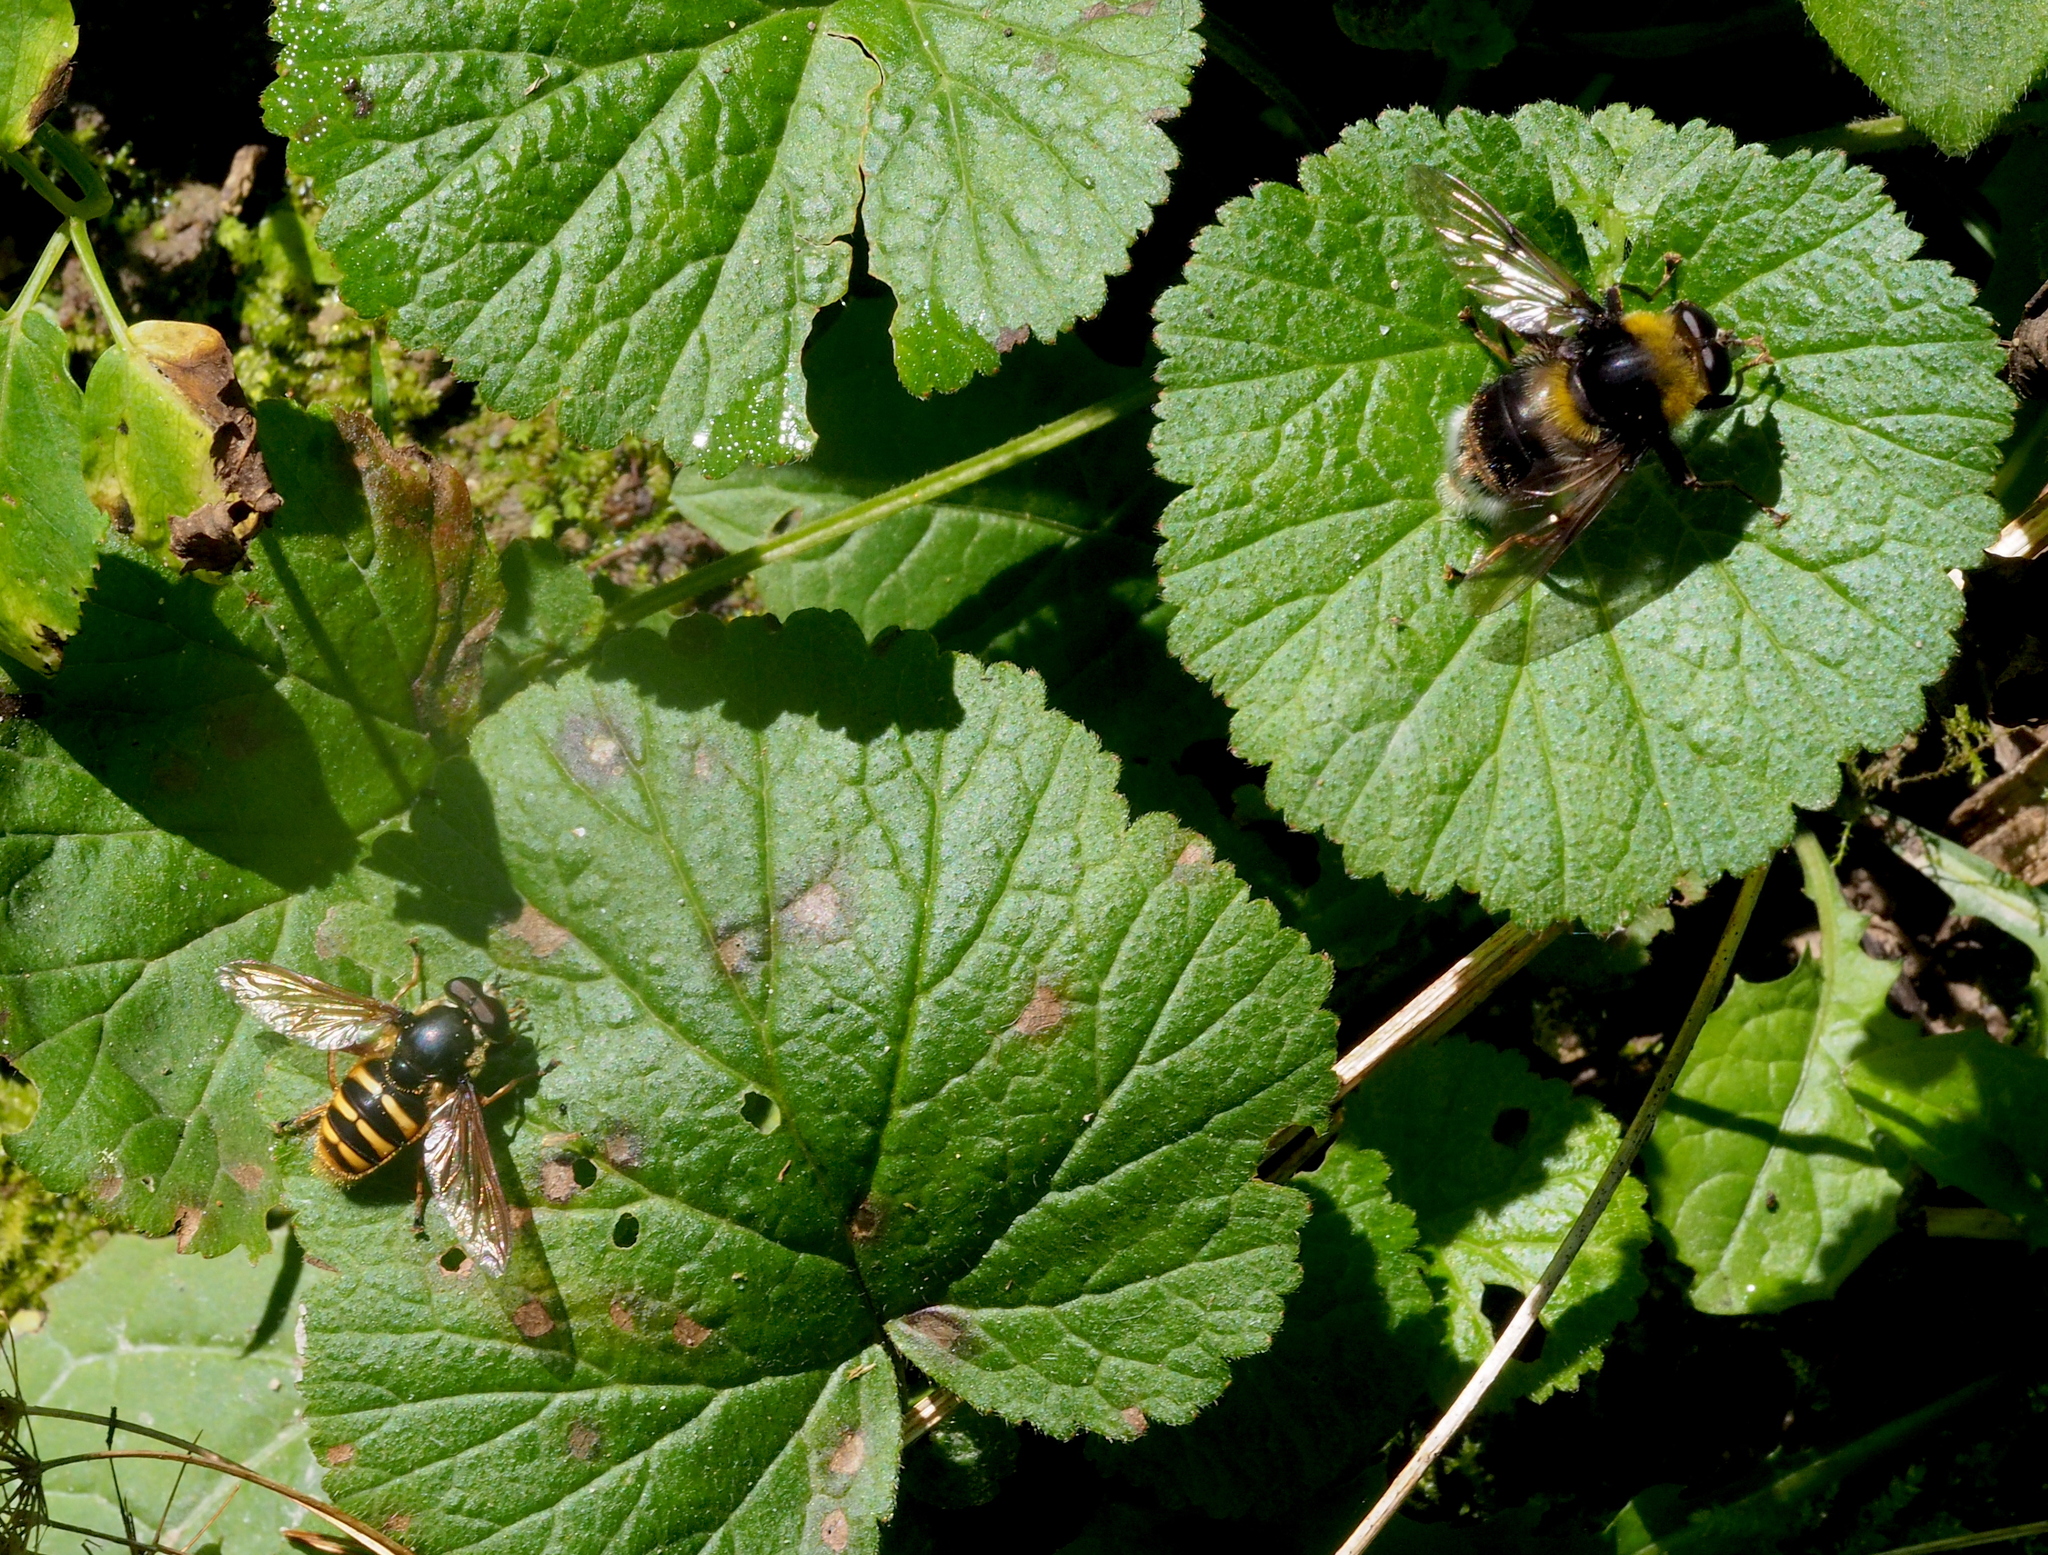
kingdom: Animalia
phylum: Arthropoda
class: Insecta
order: Diptera
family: Syrphidae
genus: Sericomyia
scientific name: Sericomyia silentis
